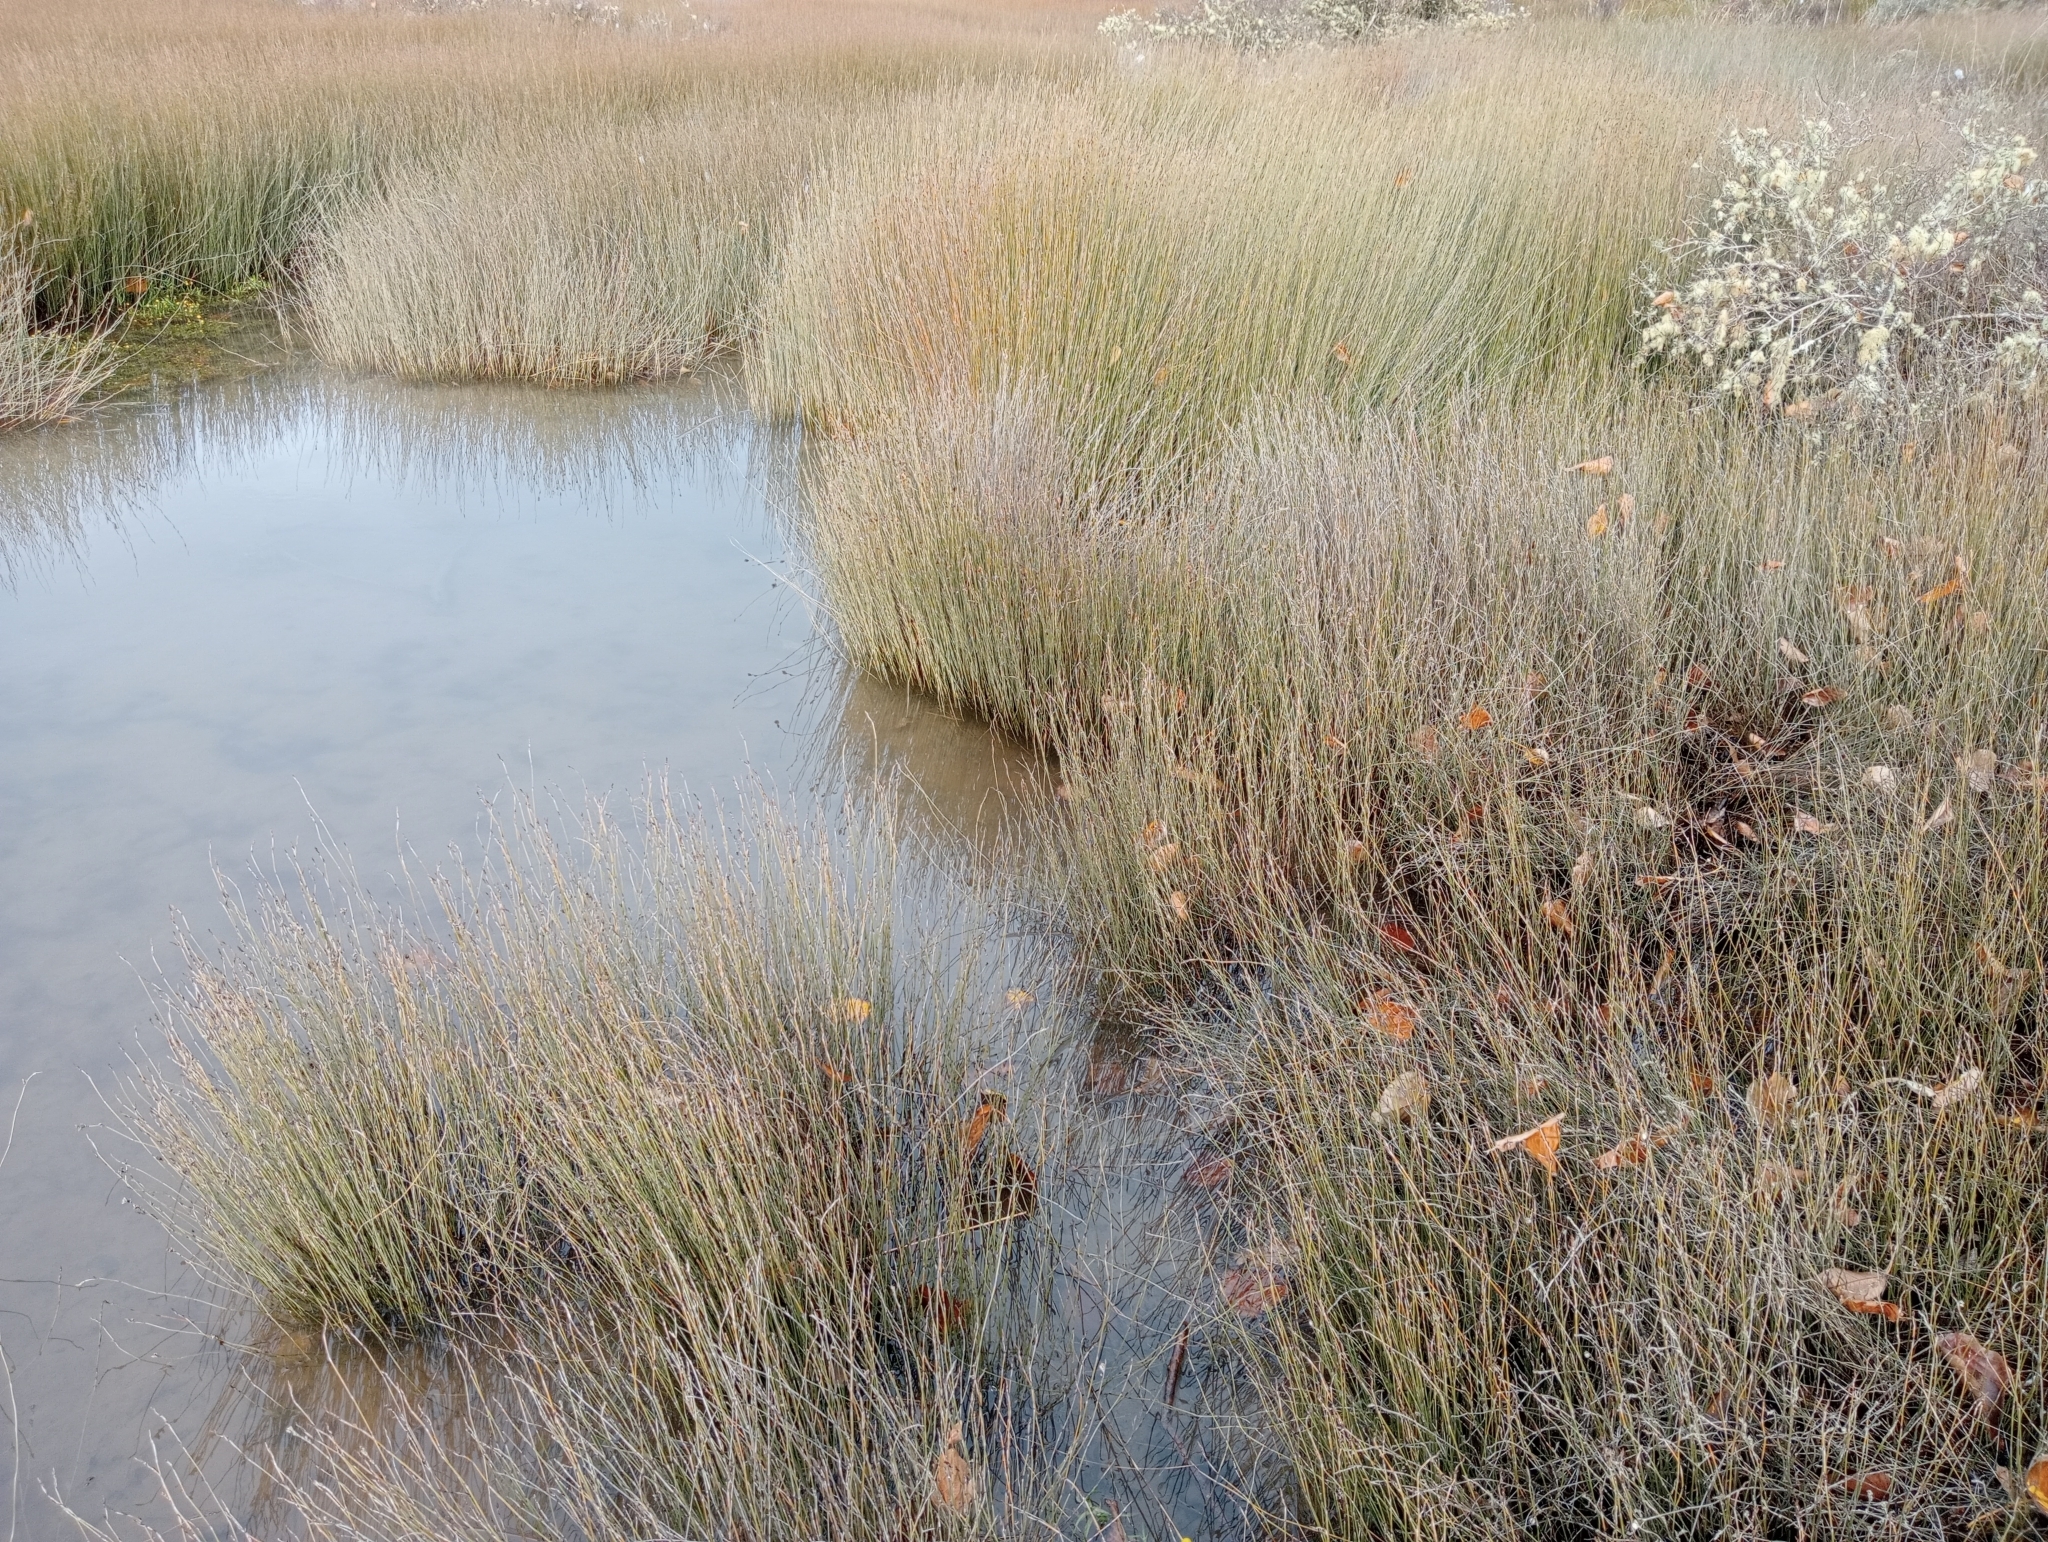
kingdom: Plantae
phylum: Tracheophyta
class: Liliopsida
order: Poales
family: Restionaceae
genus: Apodasmia
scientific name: Apodasmia similis
